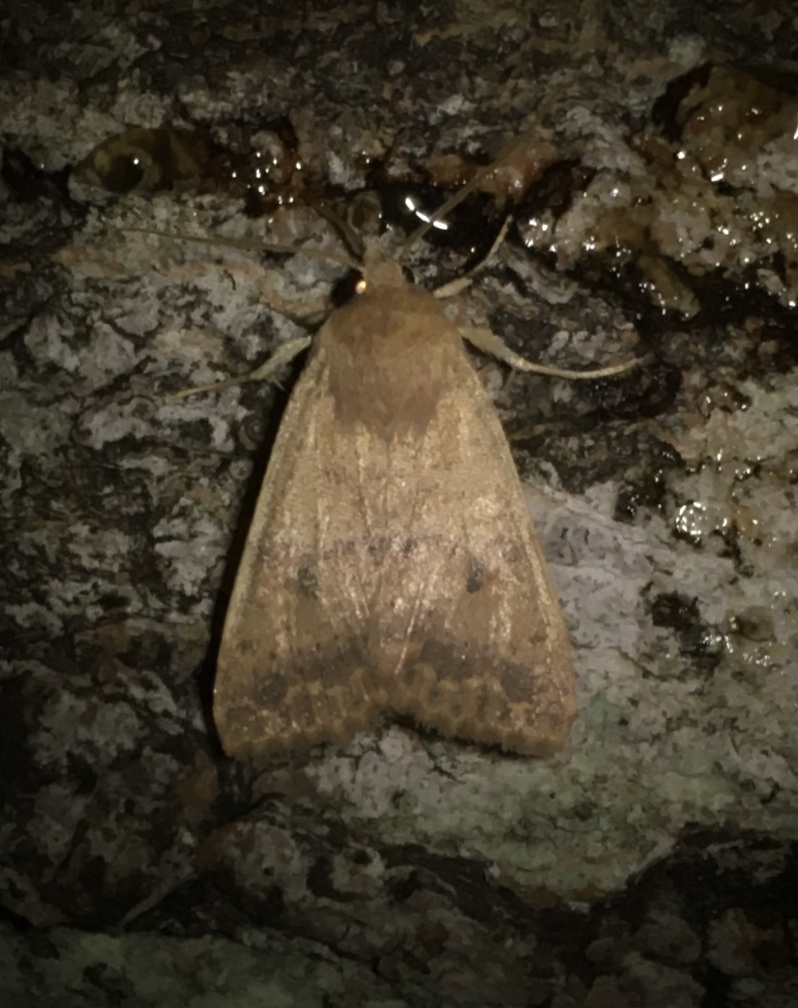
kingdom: Animalia
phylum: Arthropoda
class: Insecta
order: Lepidoptera
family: Noctuidae
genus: Agrochola
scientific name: Agrochola bicolorago
